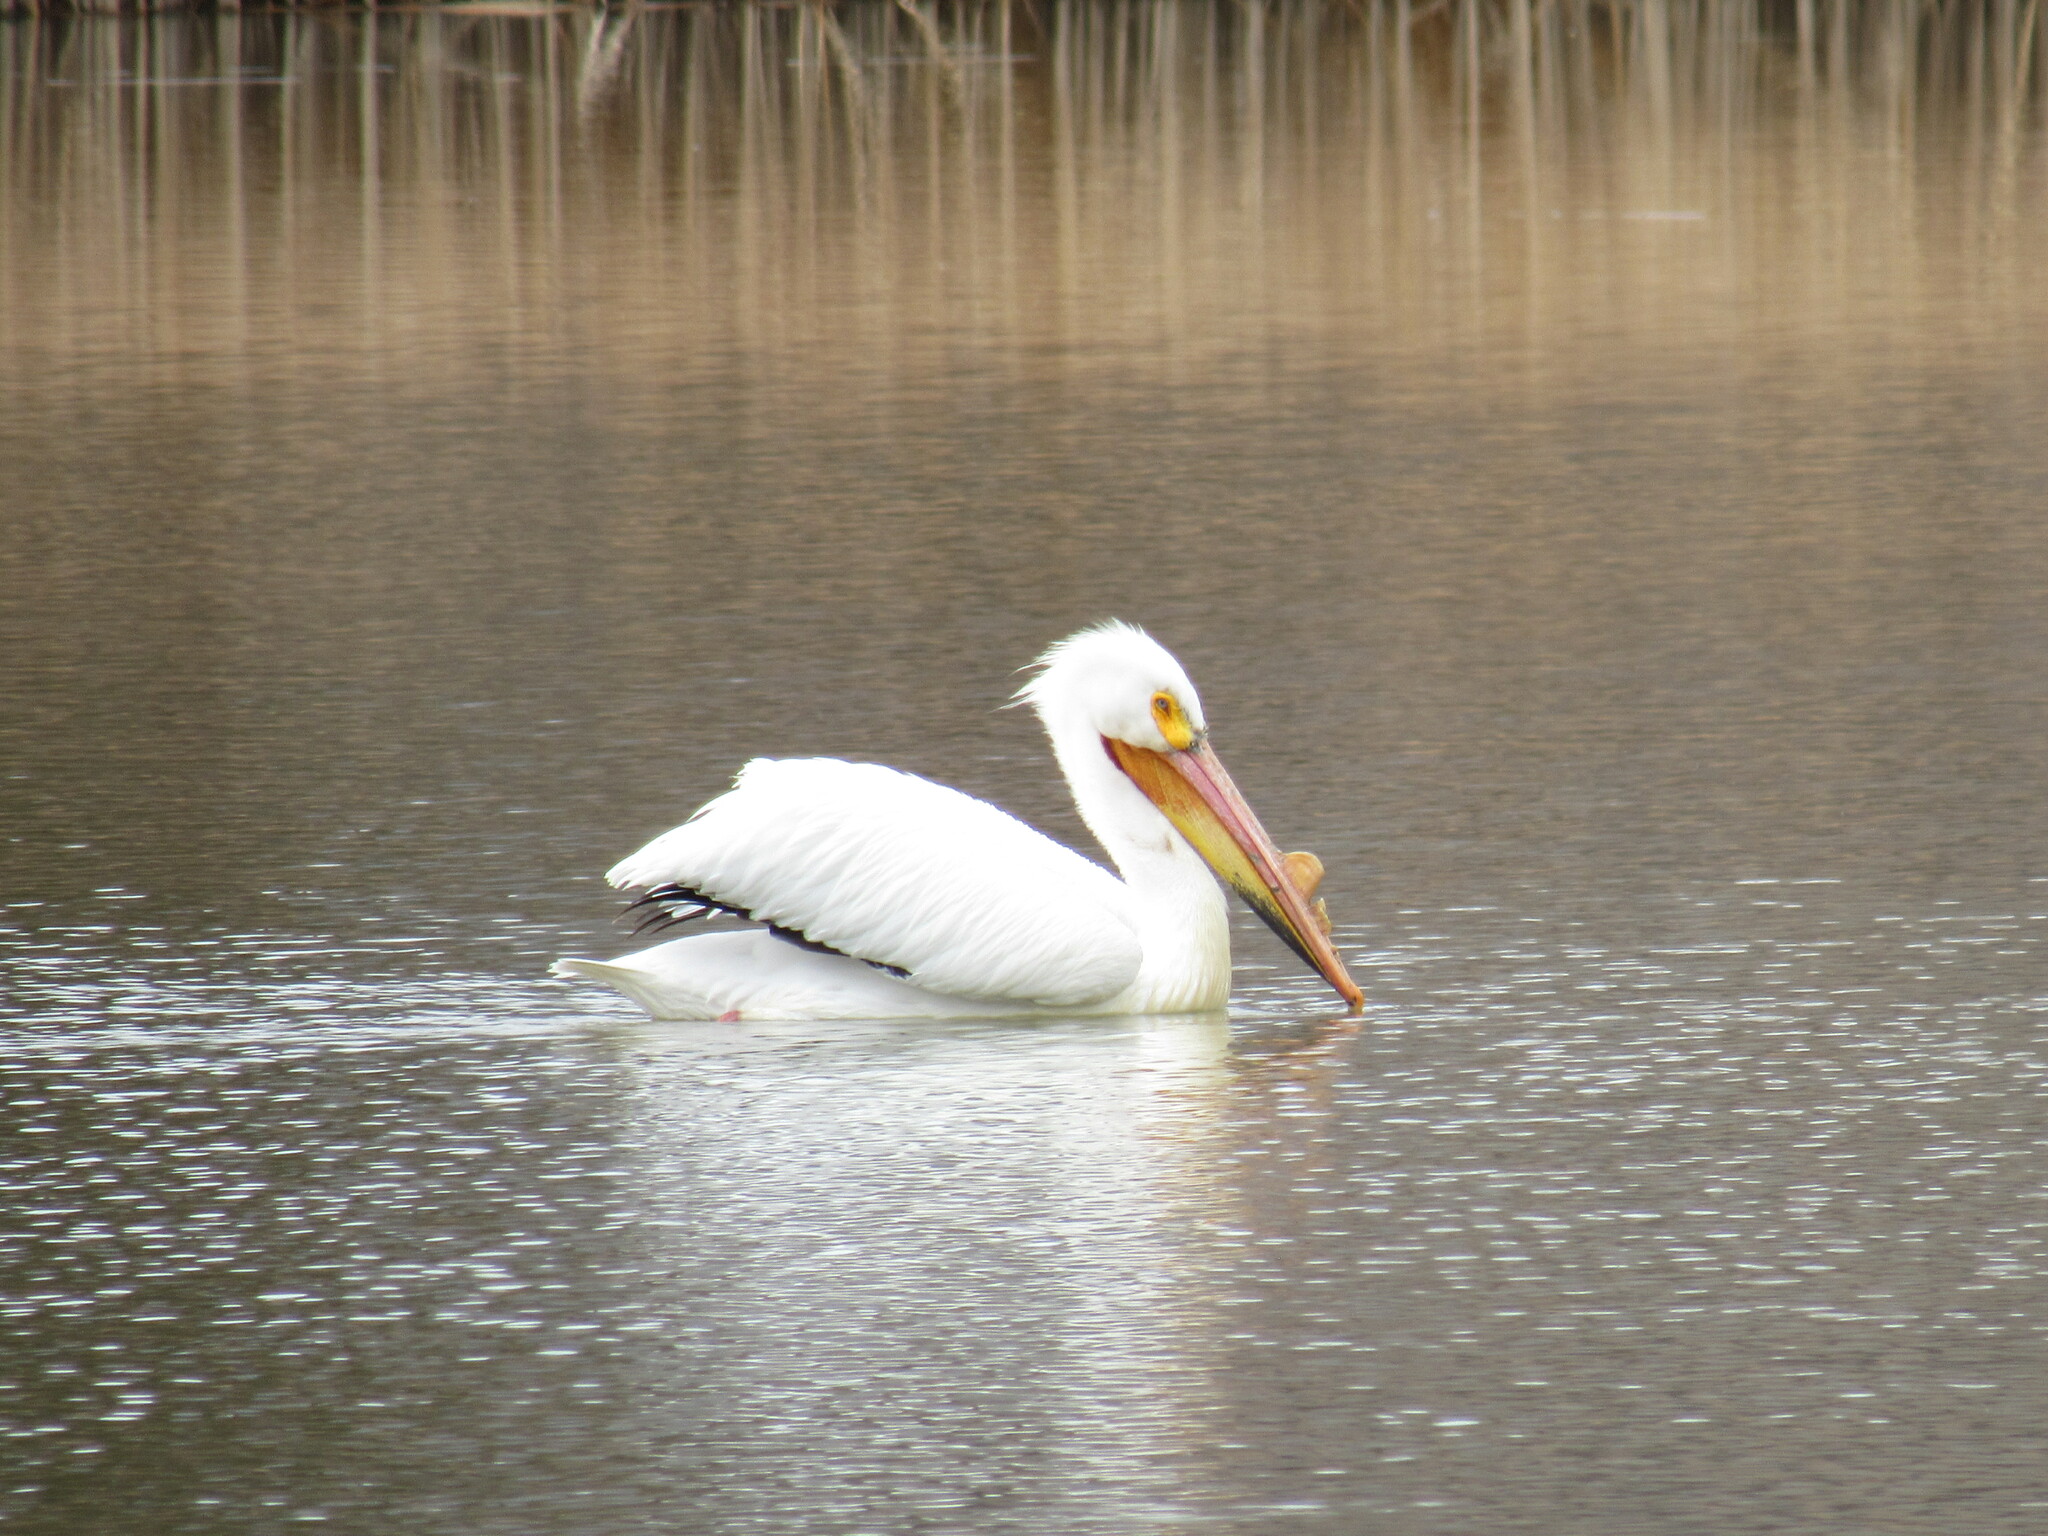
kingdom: Animalia
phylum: Chordata
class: Aves
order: Pelecaniformes
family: Pelecanidae
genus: Pelecanus
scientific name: Pelecanus erythrorhynchos
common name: American white pelican
